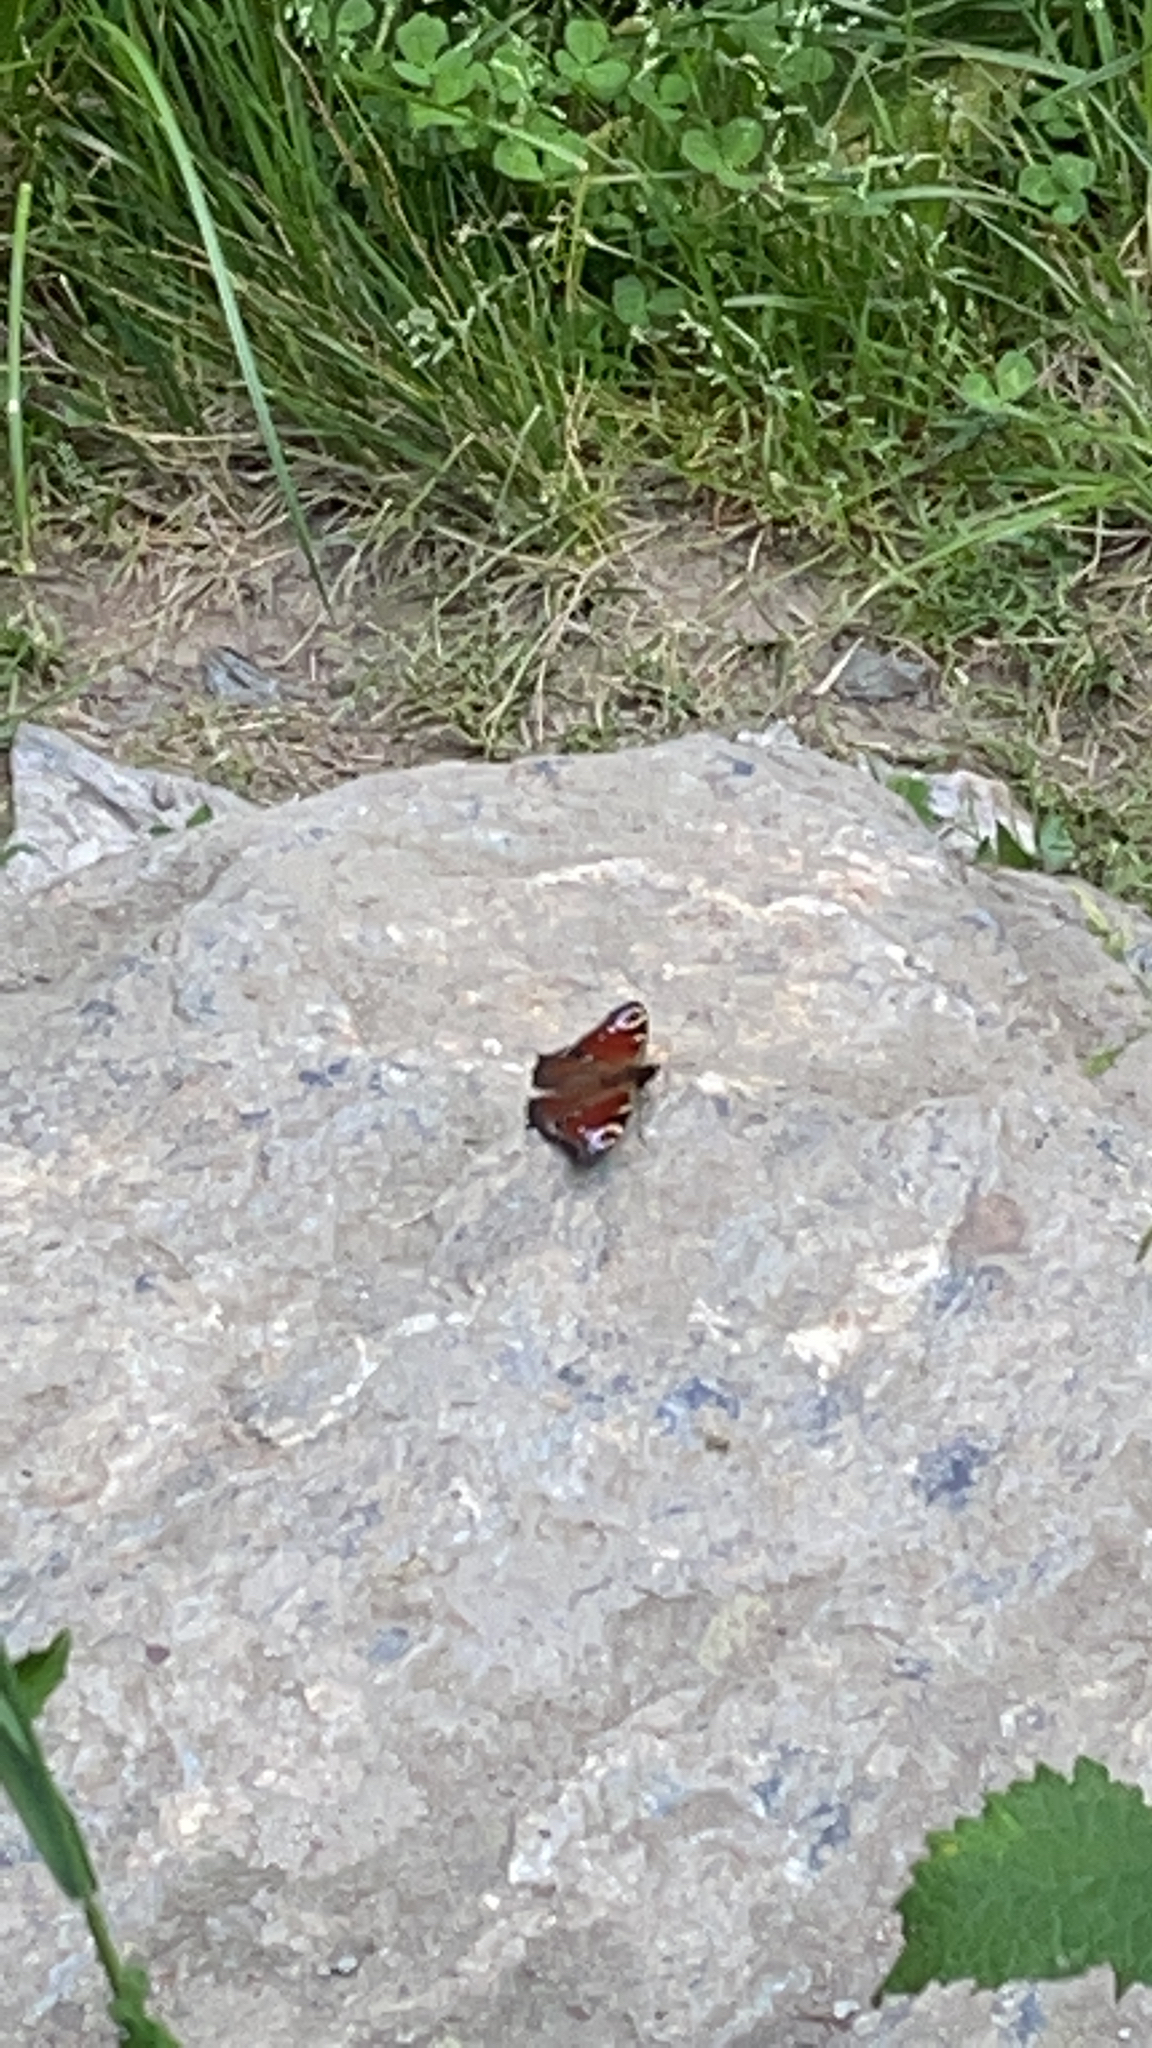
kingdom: Animalia
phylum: Arthropoda
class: Insecta
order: Lepidoptera
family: Nymphalidae
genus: Aglais
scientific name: Aglais io
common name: Peacock
